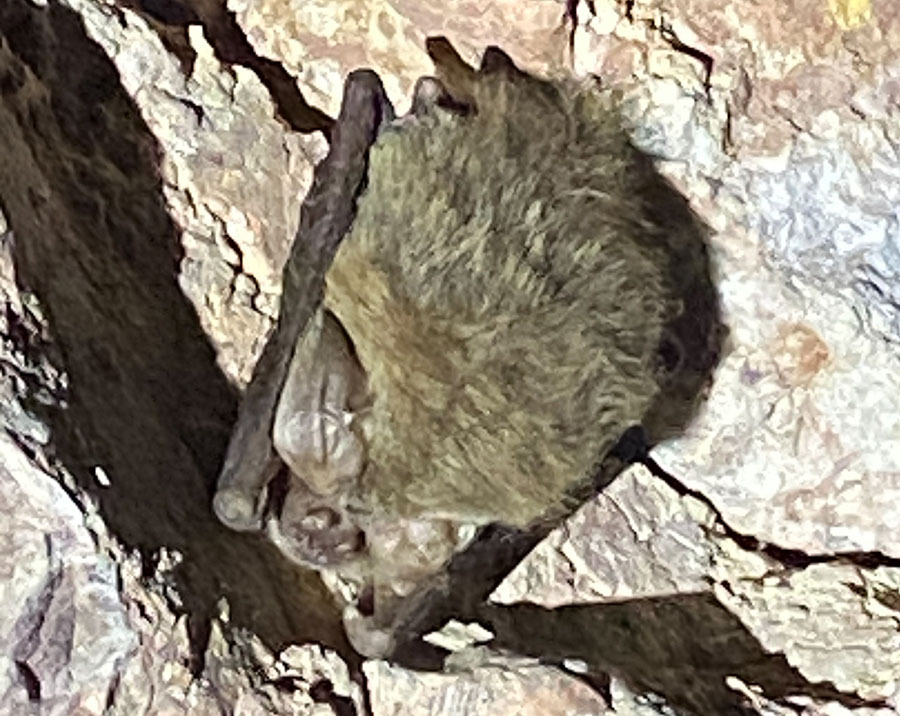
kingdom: Animalia
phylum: Chordata
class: Mammalia
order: Chiroptera
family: Vespertilionidae
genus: Corynorhinus
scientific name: Corynorhinus townsendii
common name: Townsend's big-eared bat
